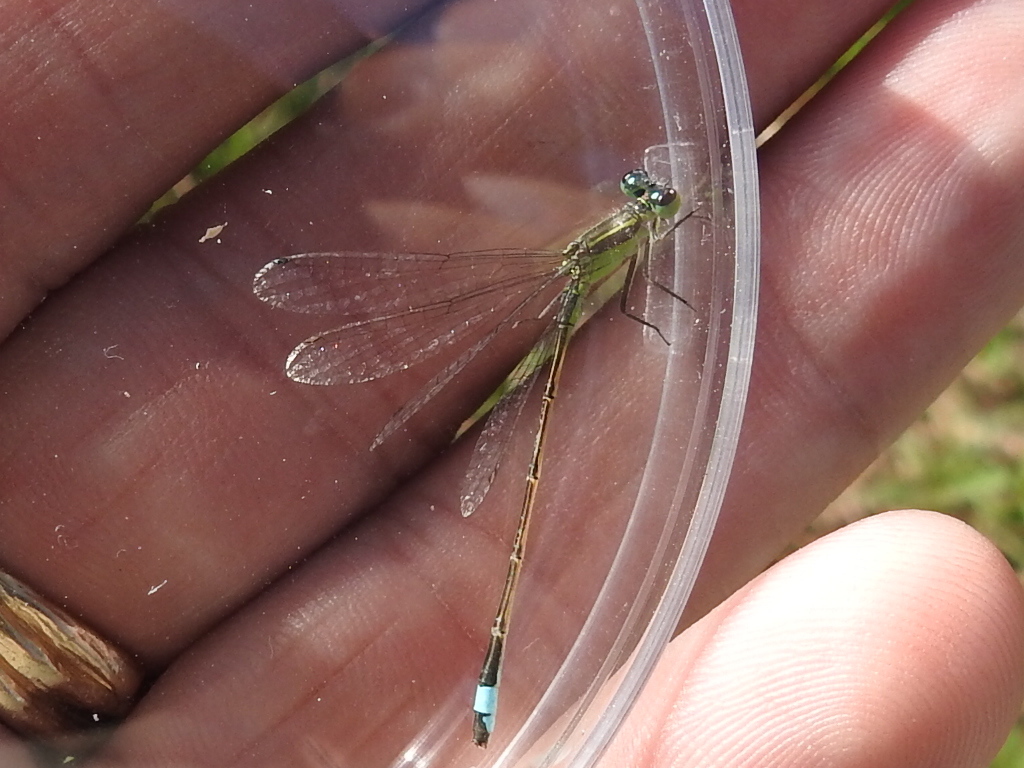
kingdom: Animalia
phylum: Arthropoda
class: Insecta
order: Odonata
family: Coenagrionidae
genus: Ischnura
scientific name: Ischnura ramburii
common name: Rambur's forktail
